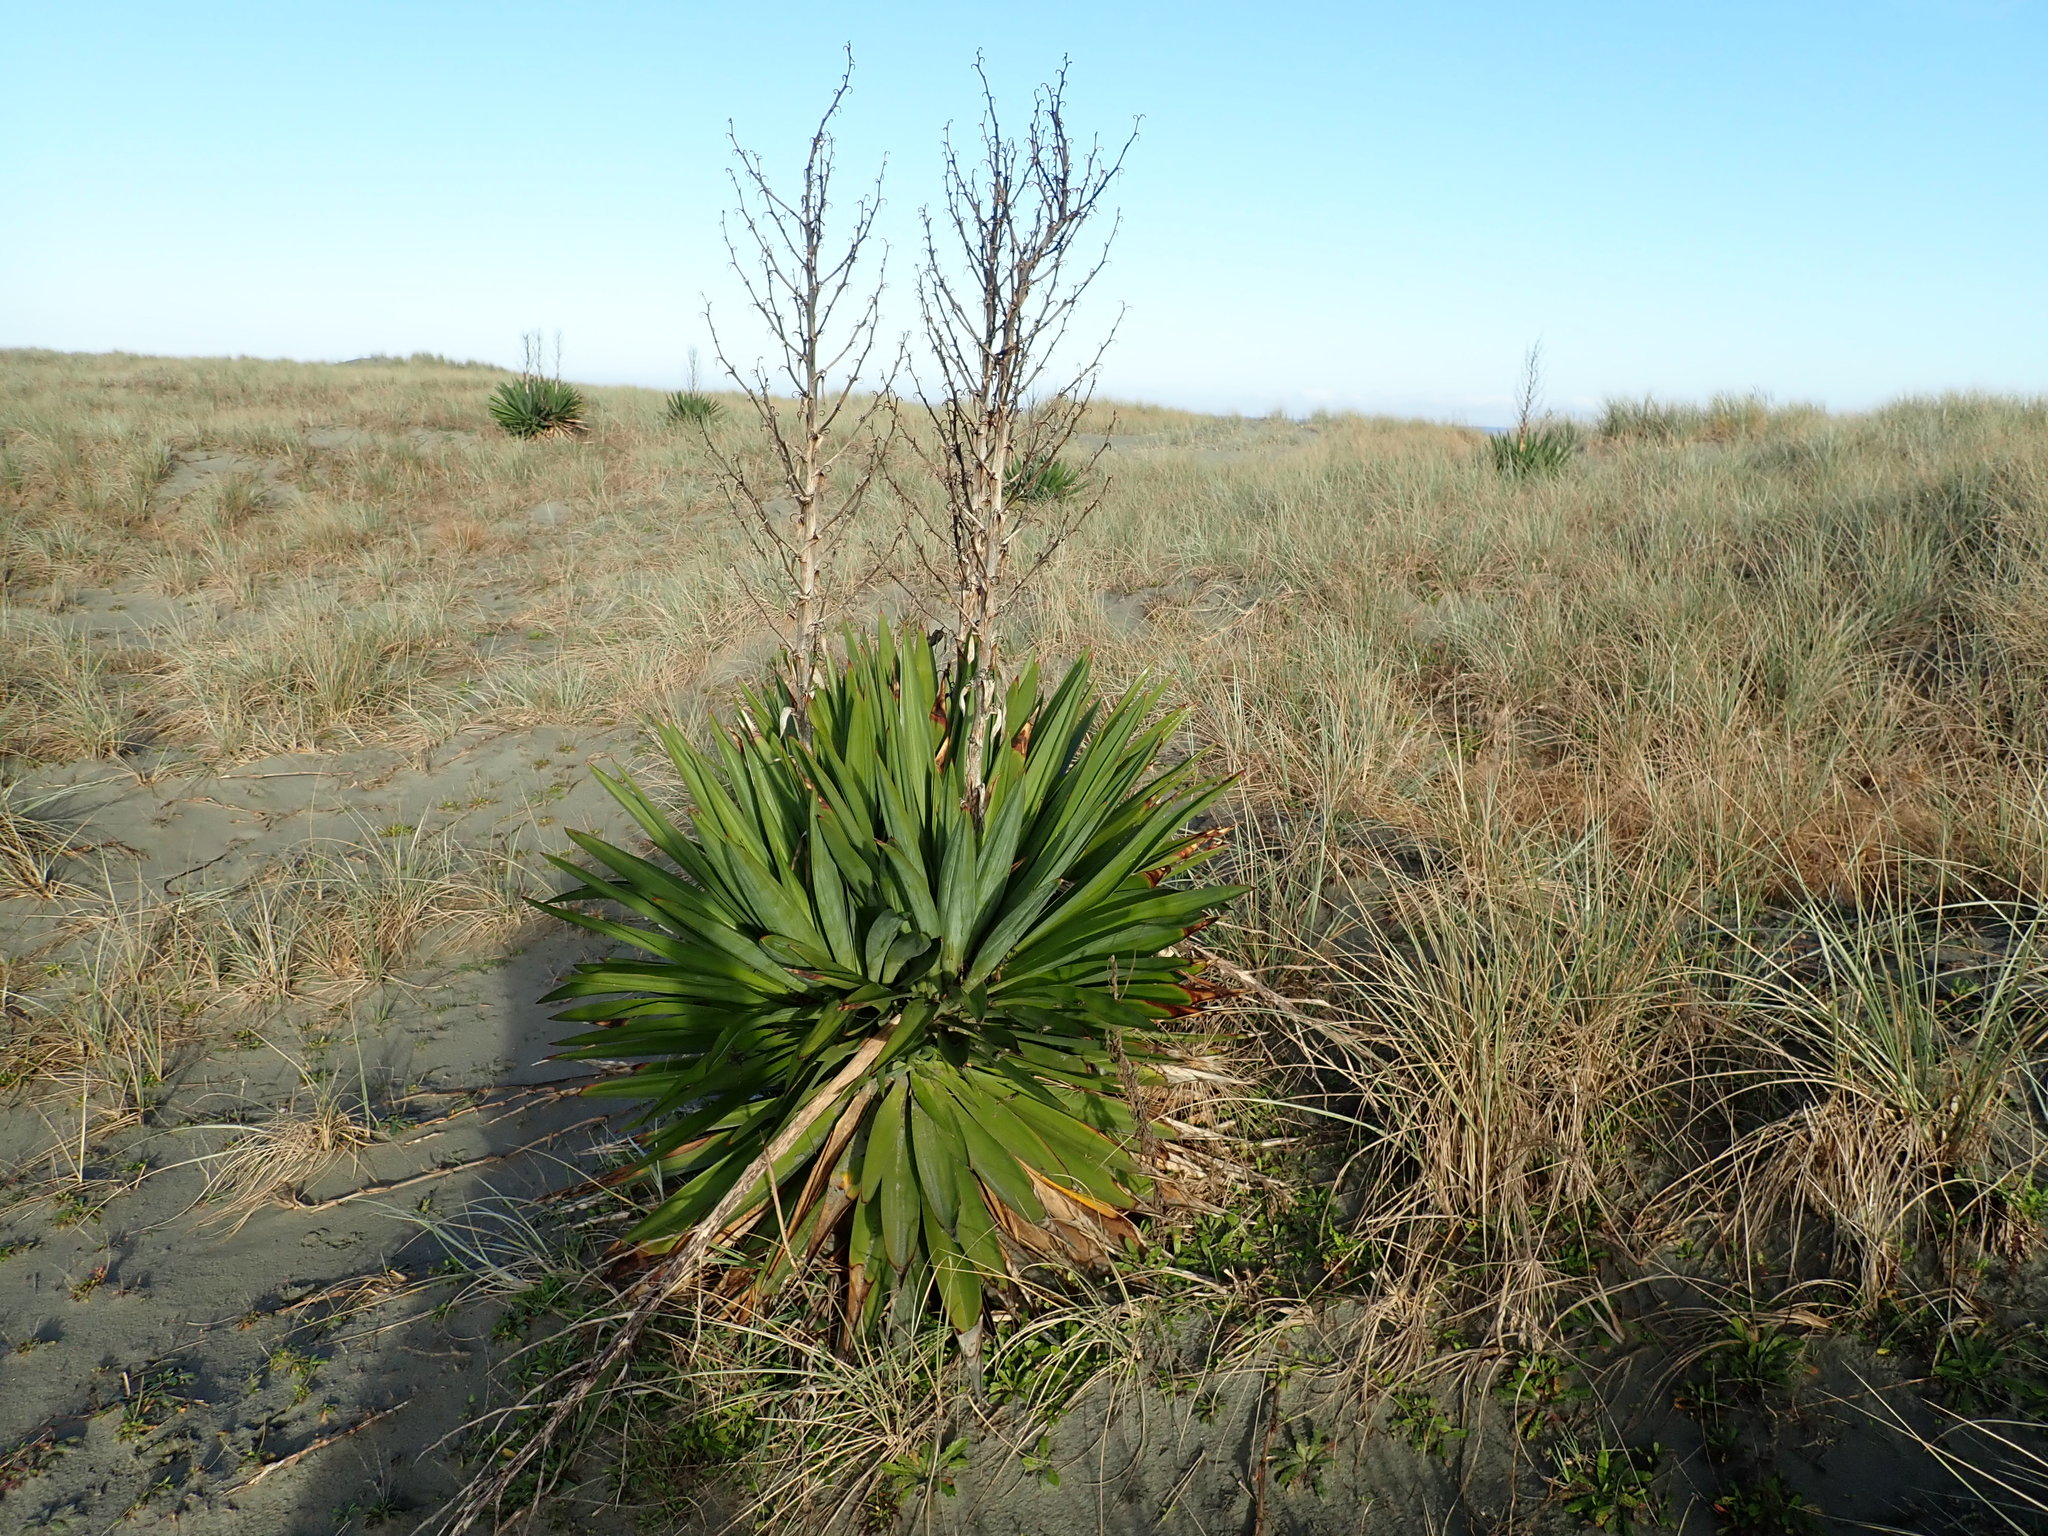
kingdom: Plantae
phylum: Tracheophyta
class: Liliopsida
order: Asparagales
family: Asparagaceae
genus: Yucca
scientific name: Yucca gloriosa
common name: Spanish-dagger
